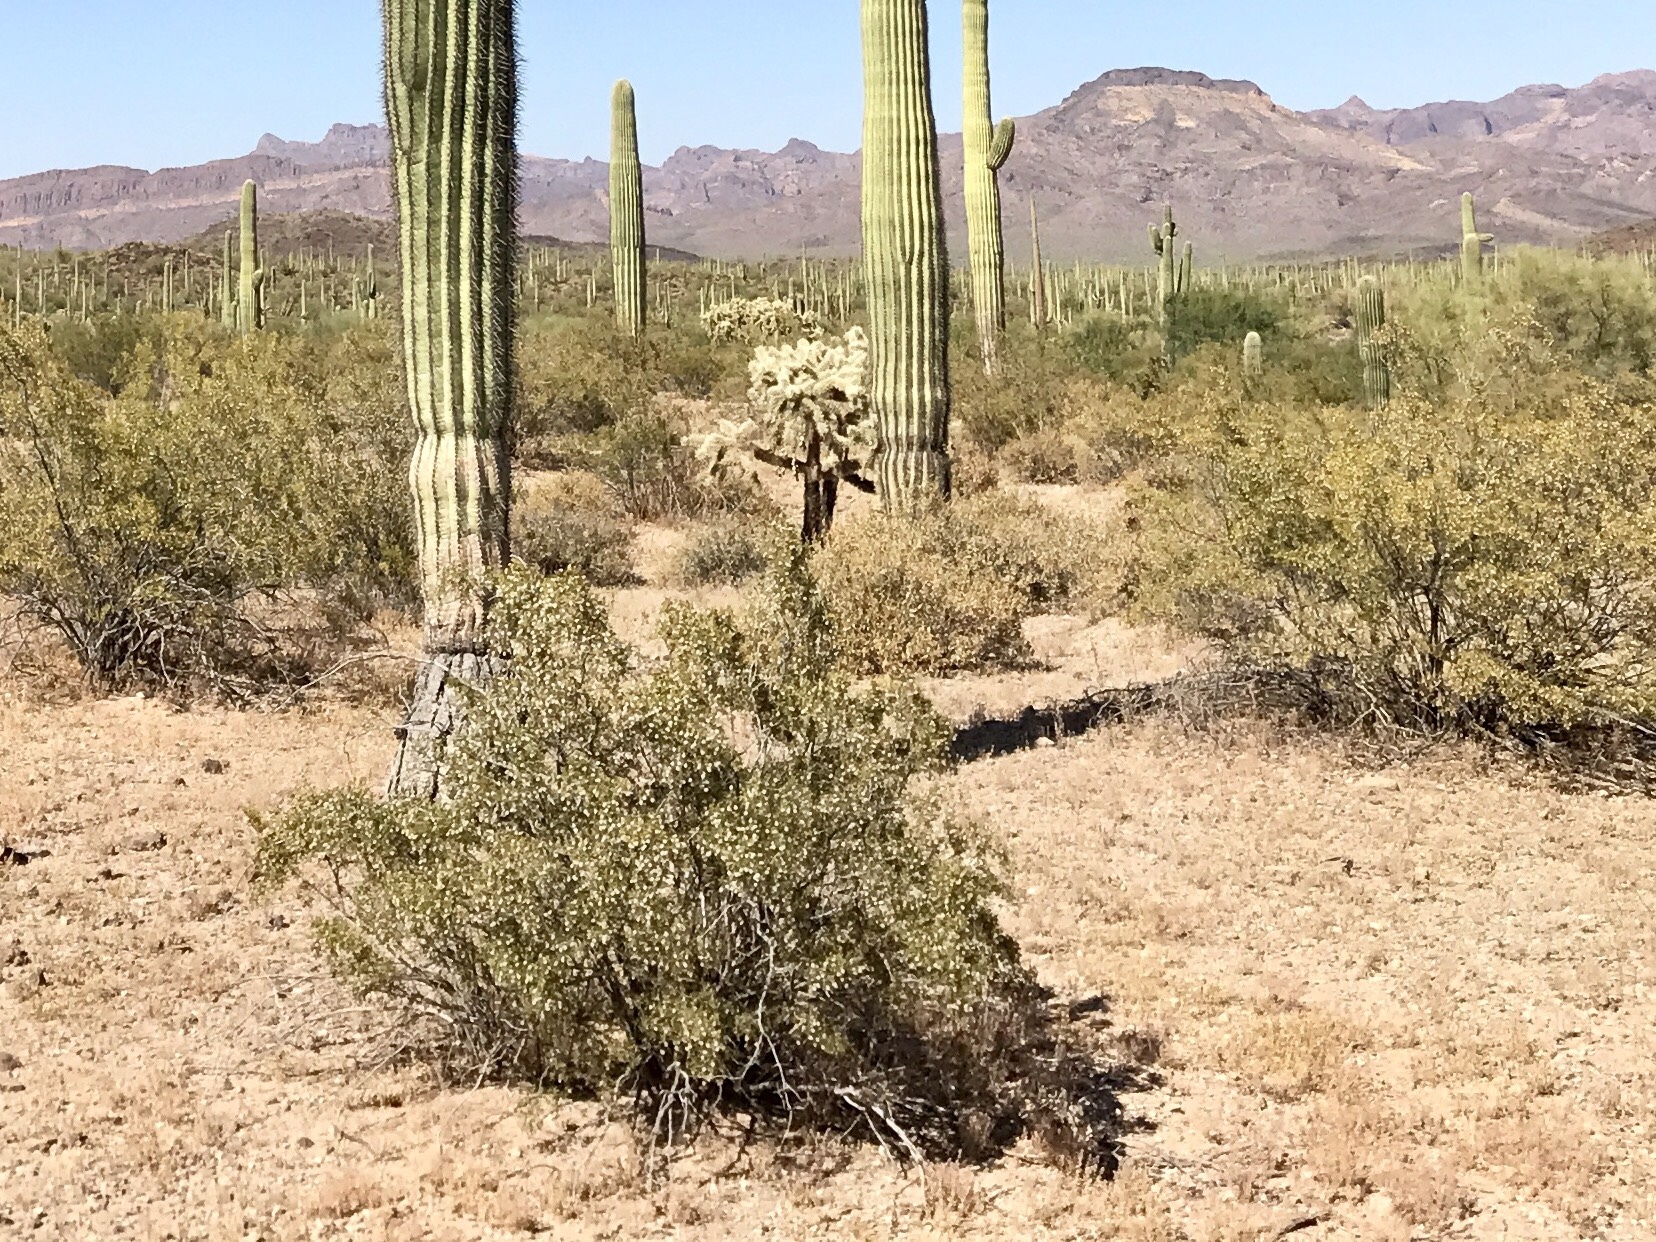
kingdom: Plantae
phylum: Tracheophyta
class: Magnoliopsida
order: Zygophyllales
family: Zygophyllaceae
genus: Larrea
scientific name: Larrea tridentata
